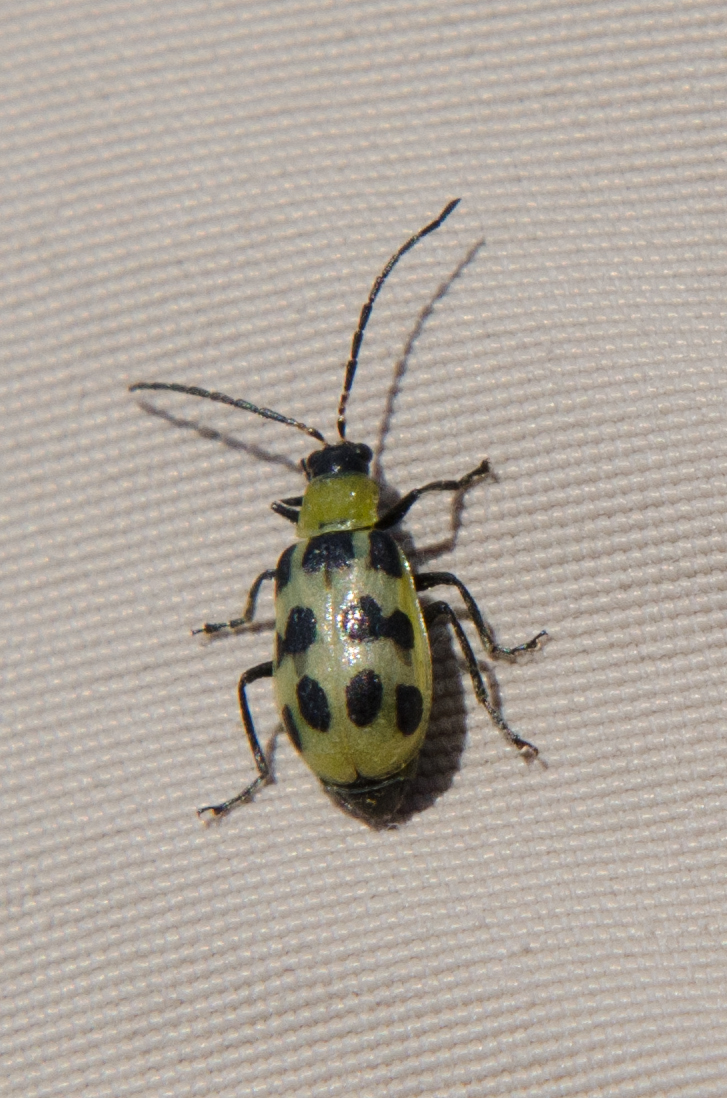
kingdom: Animalia
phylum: Arthropoda
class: Insecta
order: Coleoptera
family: Chrysomelidae
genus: Diabrotica
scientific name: Diabrotica undecimpunctata
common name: Spotted cucumber beetle
